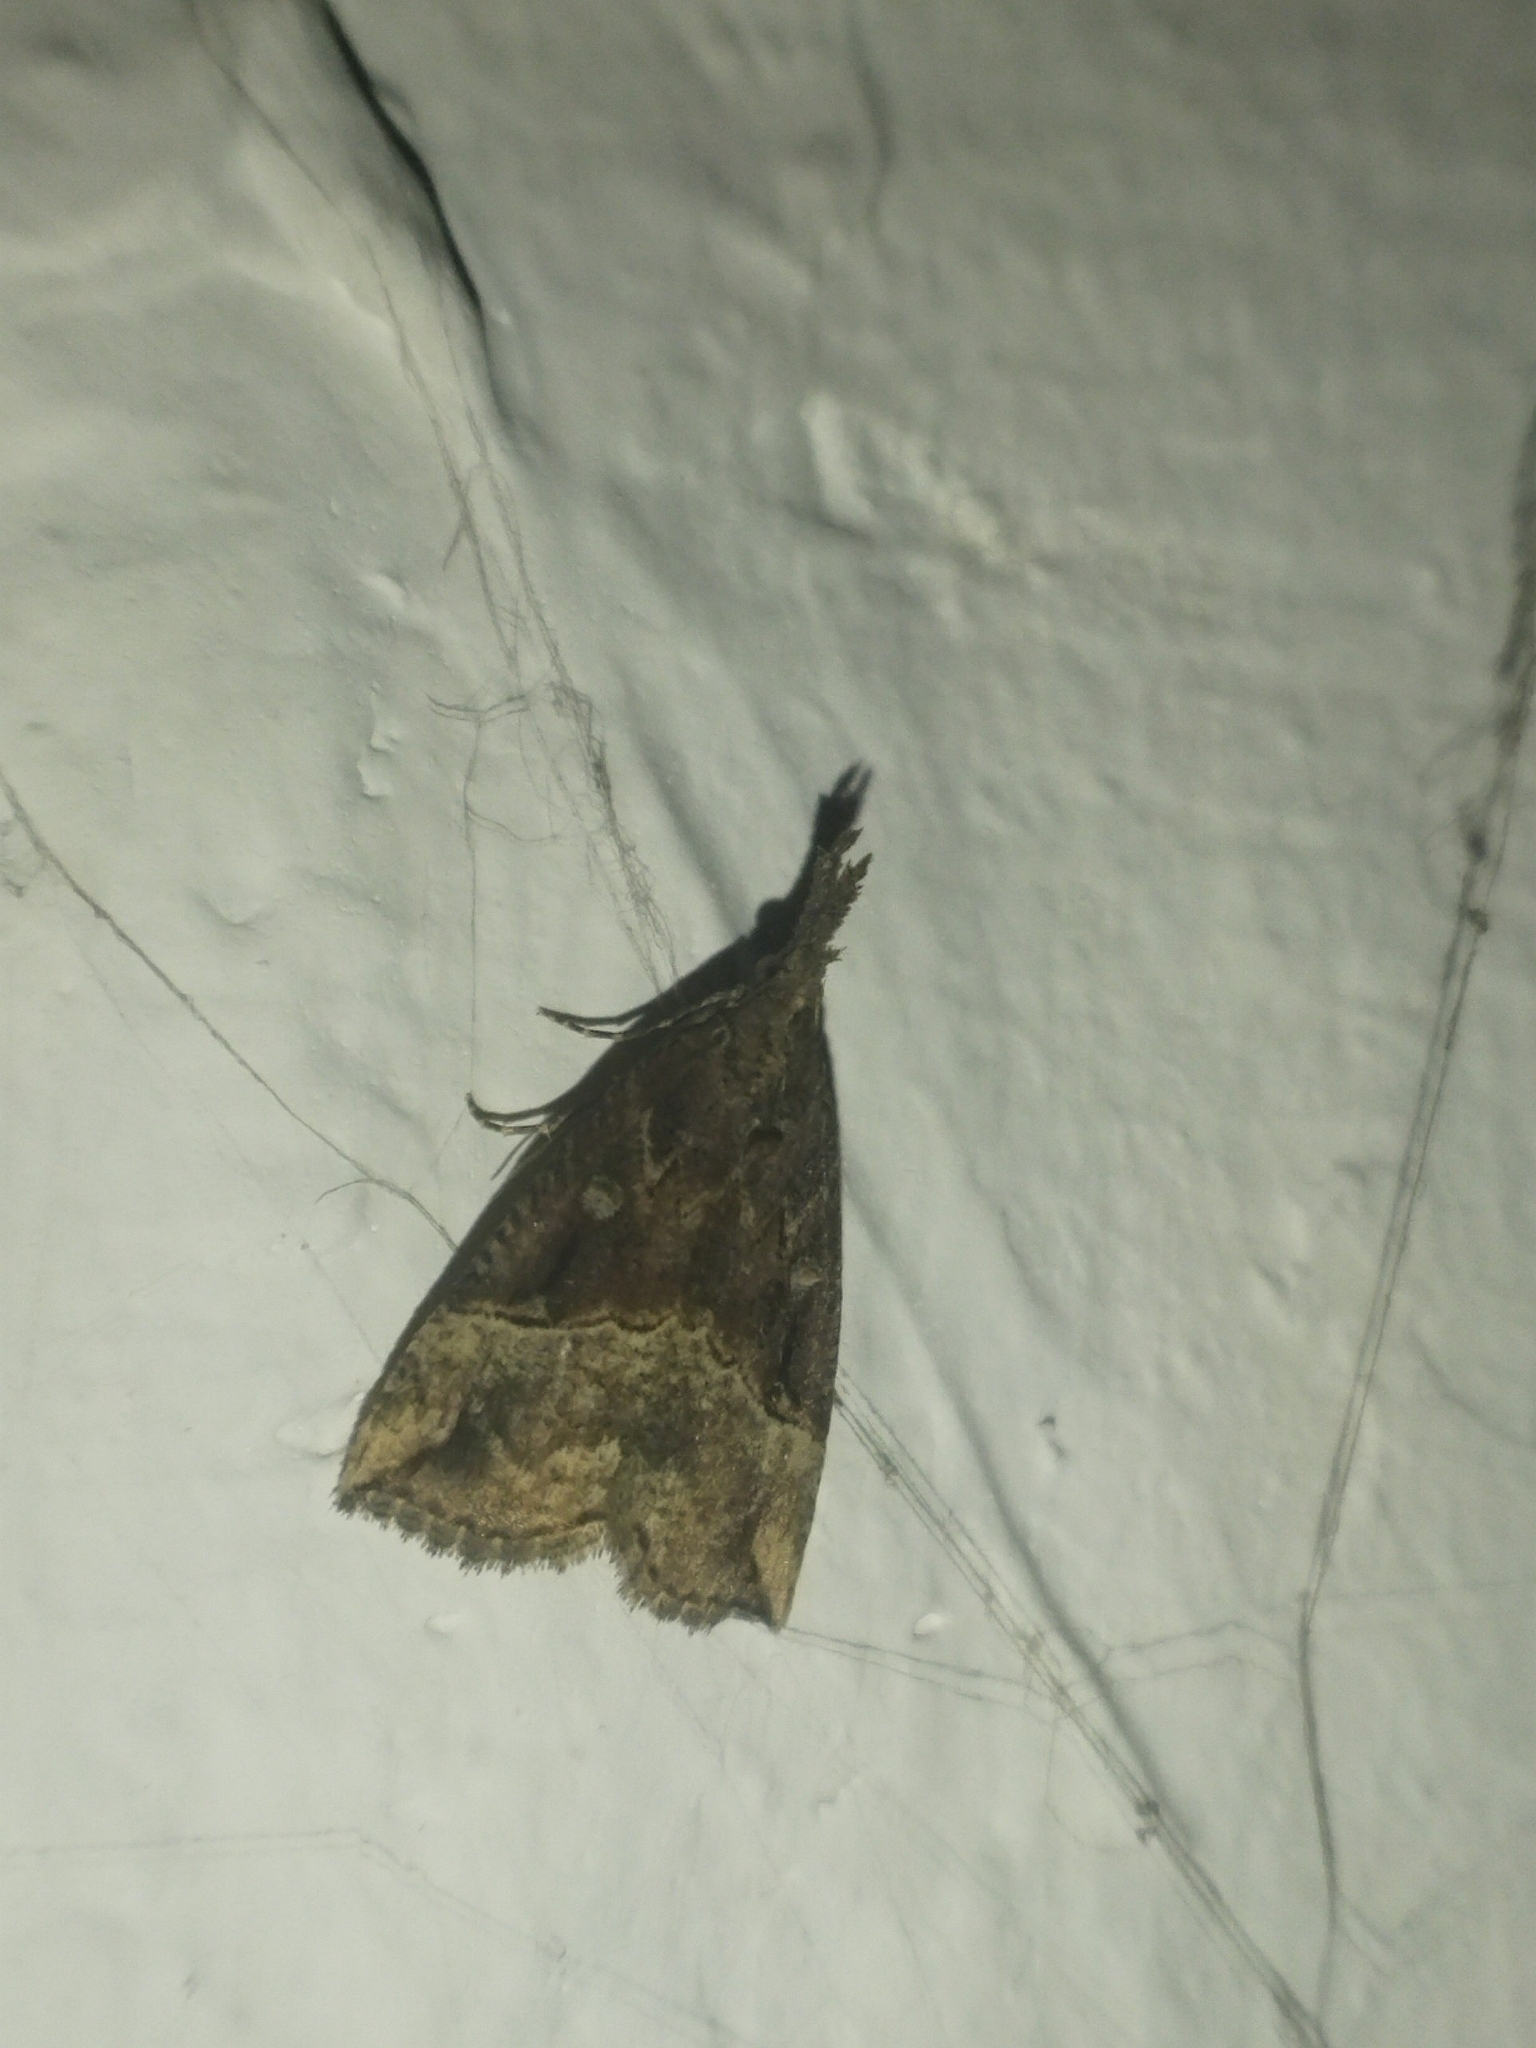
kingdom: Animalia
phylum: Arthropoda
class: Insecta
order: Lepidoptera
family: Erebidae
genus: Hypena
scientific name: Hypena rostralis
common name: Buttoned snout
